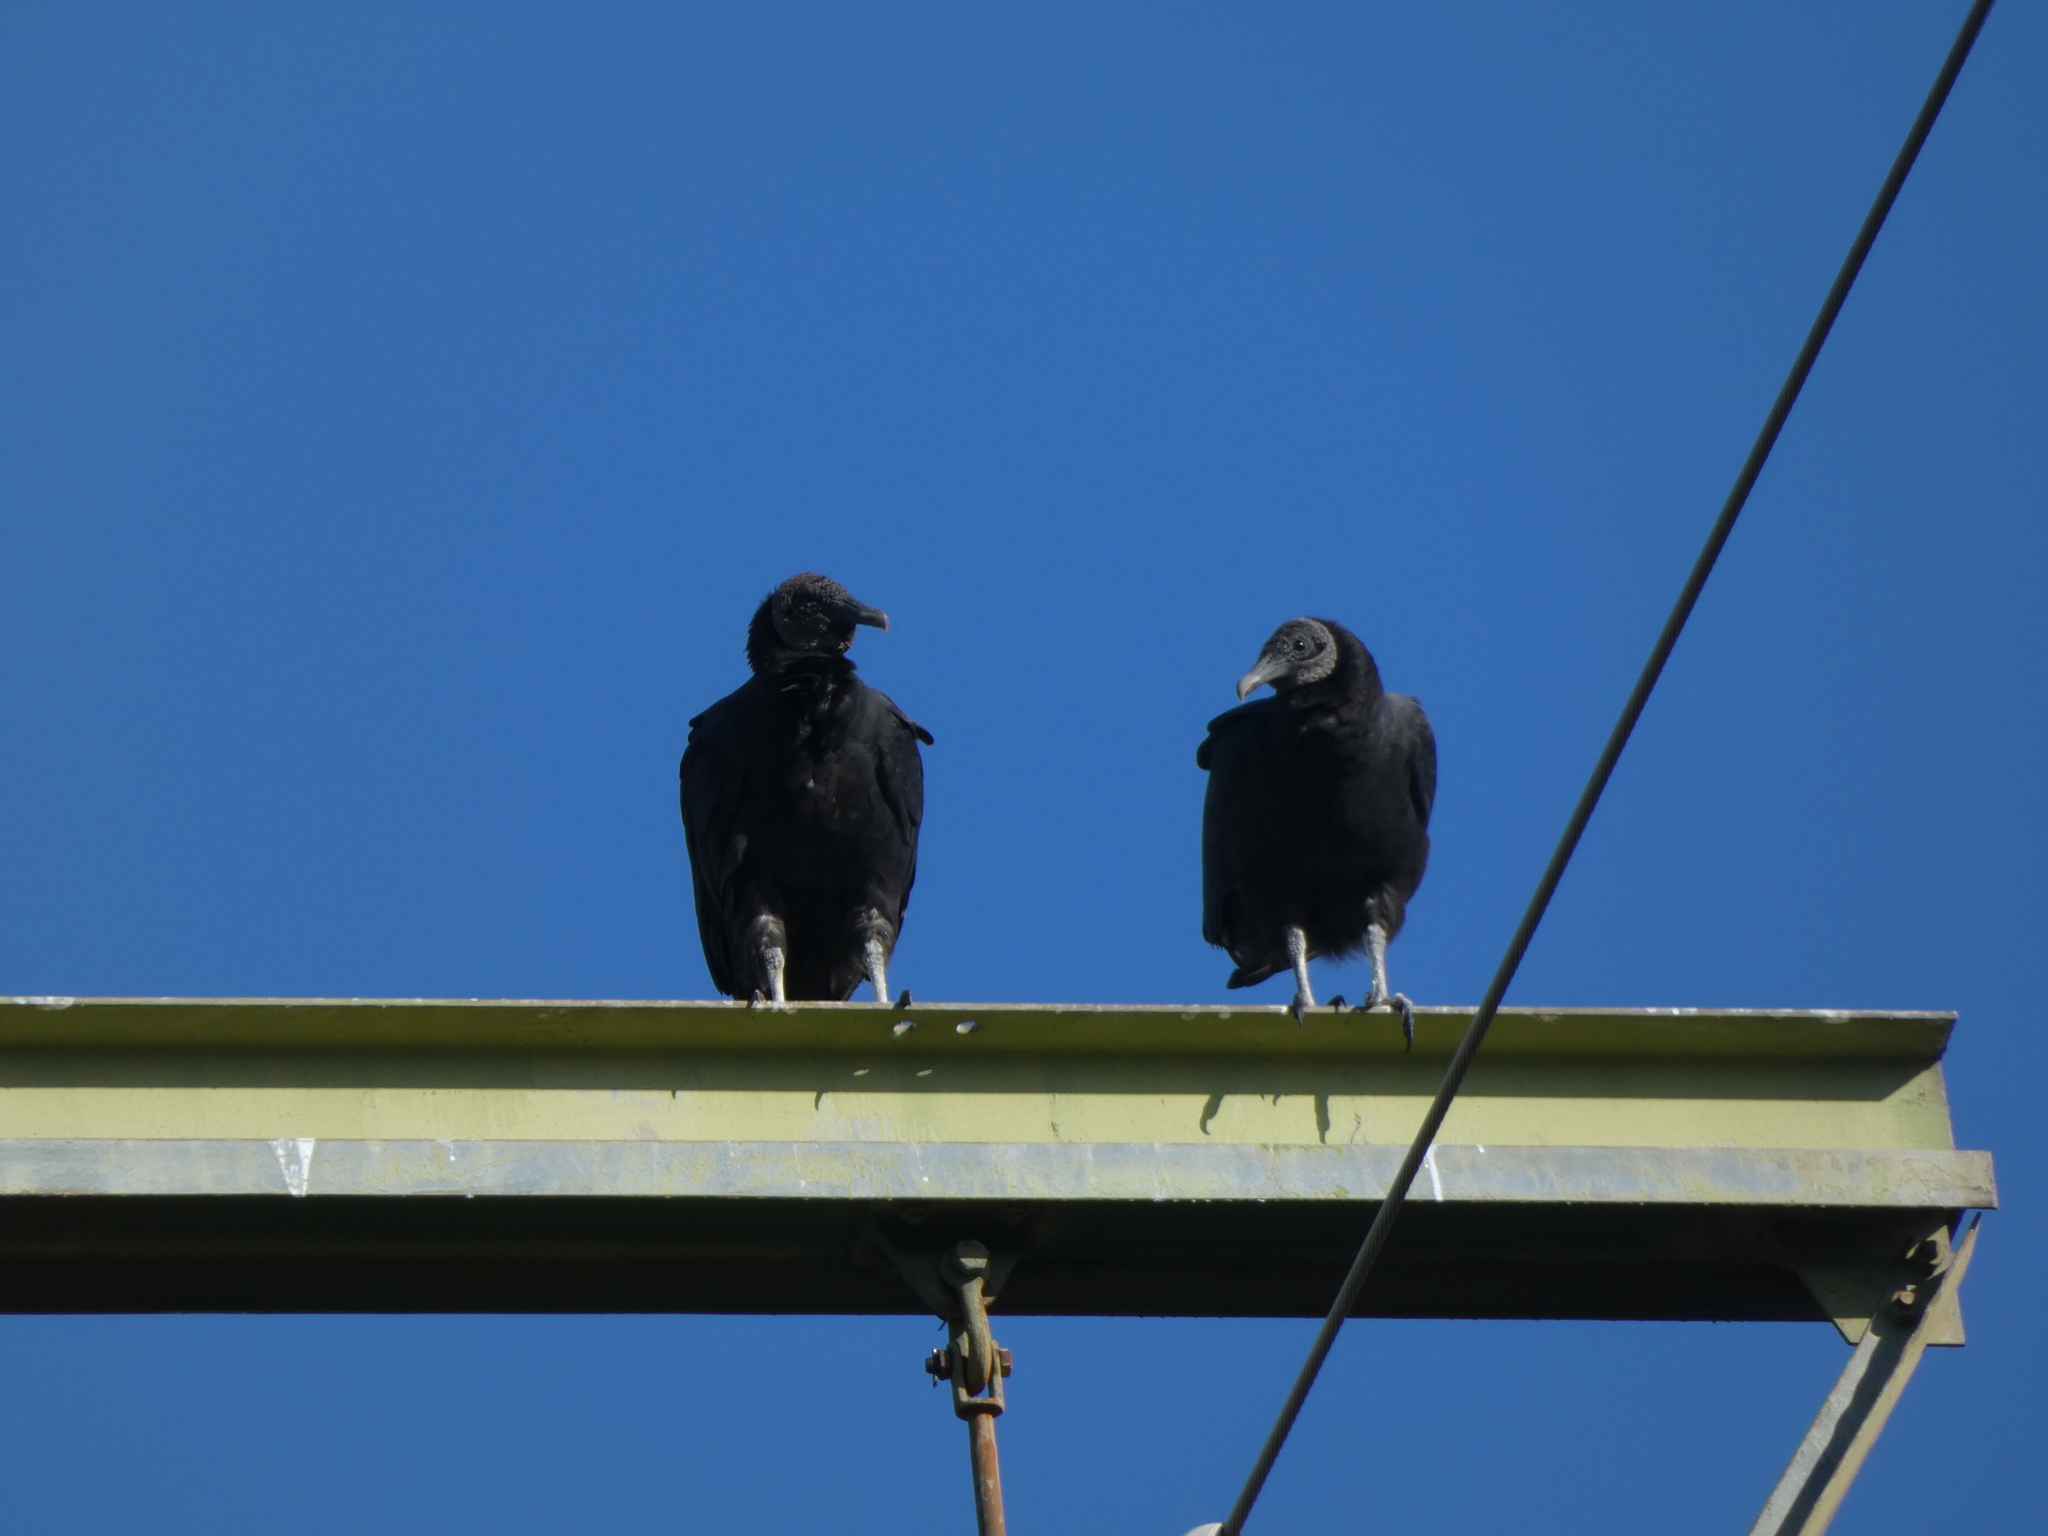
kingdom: Animalia
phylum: Chordata
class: Aves
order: Accipitriformes
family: Cathartidae
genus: Coragyps
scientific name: Coragyps atratus
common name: Black vulture
